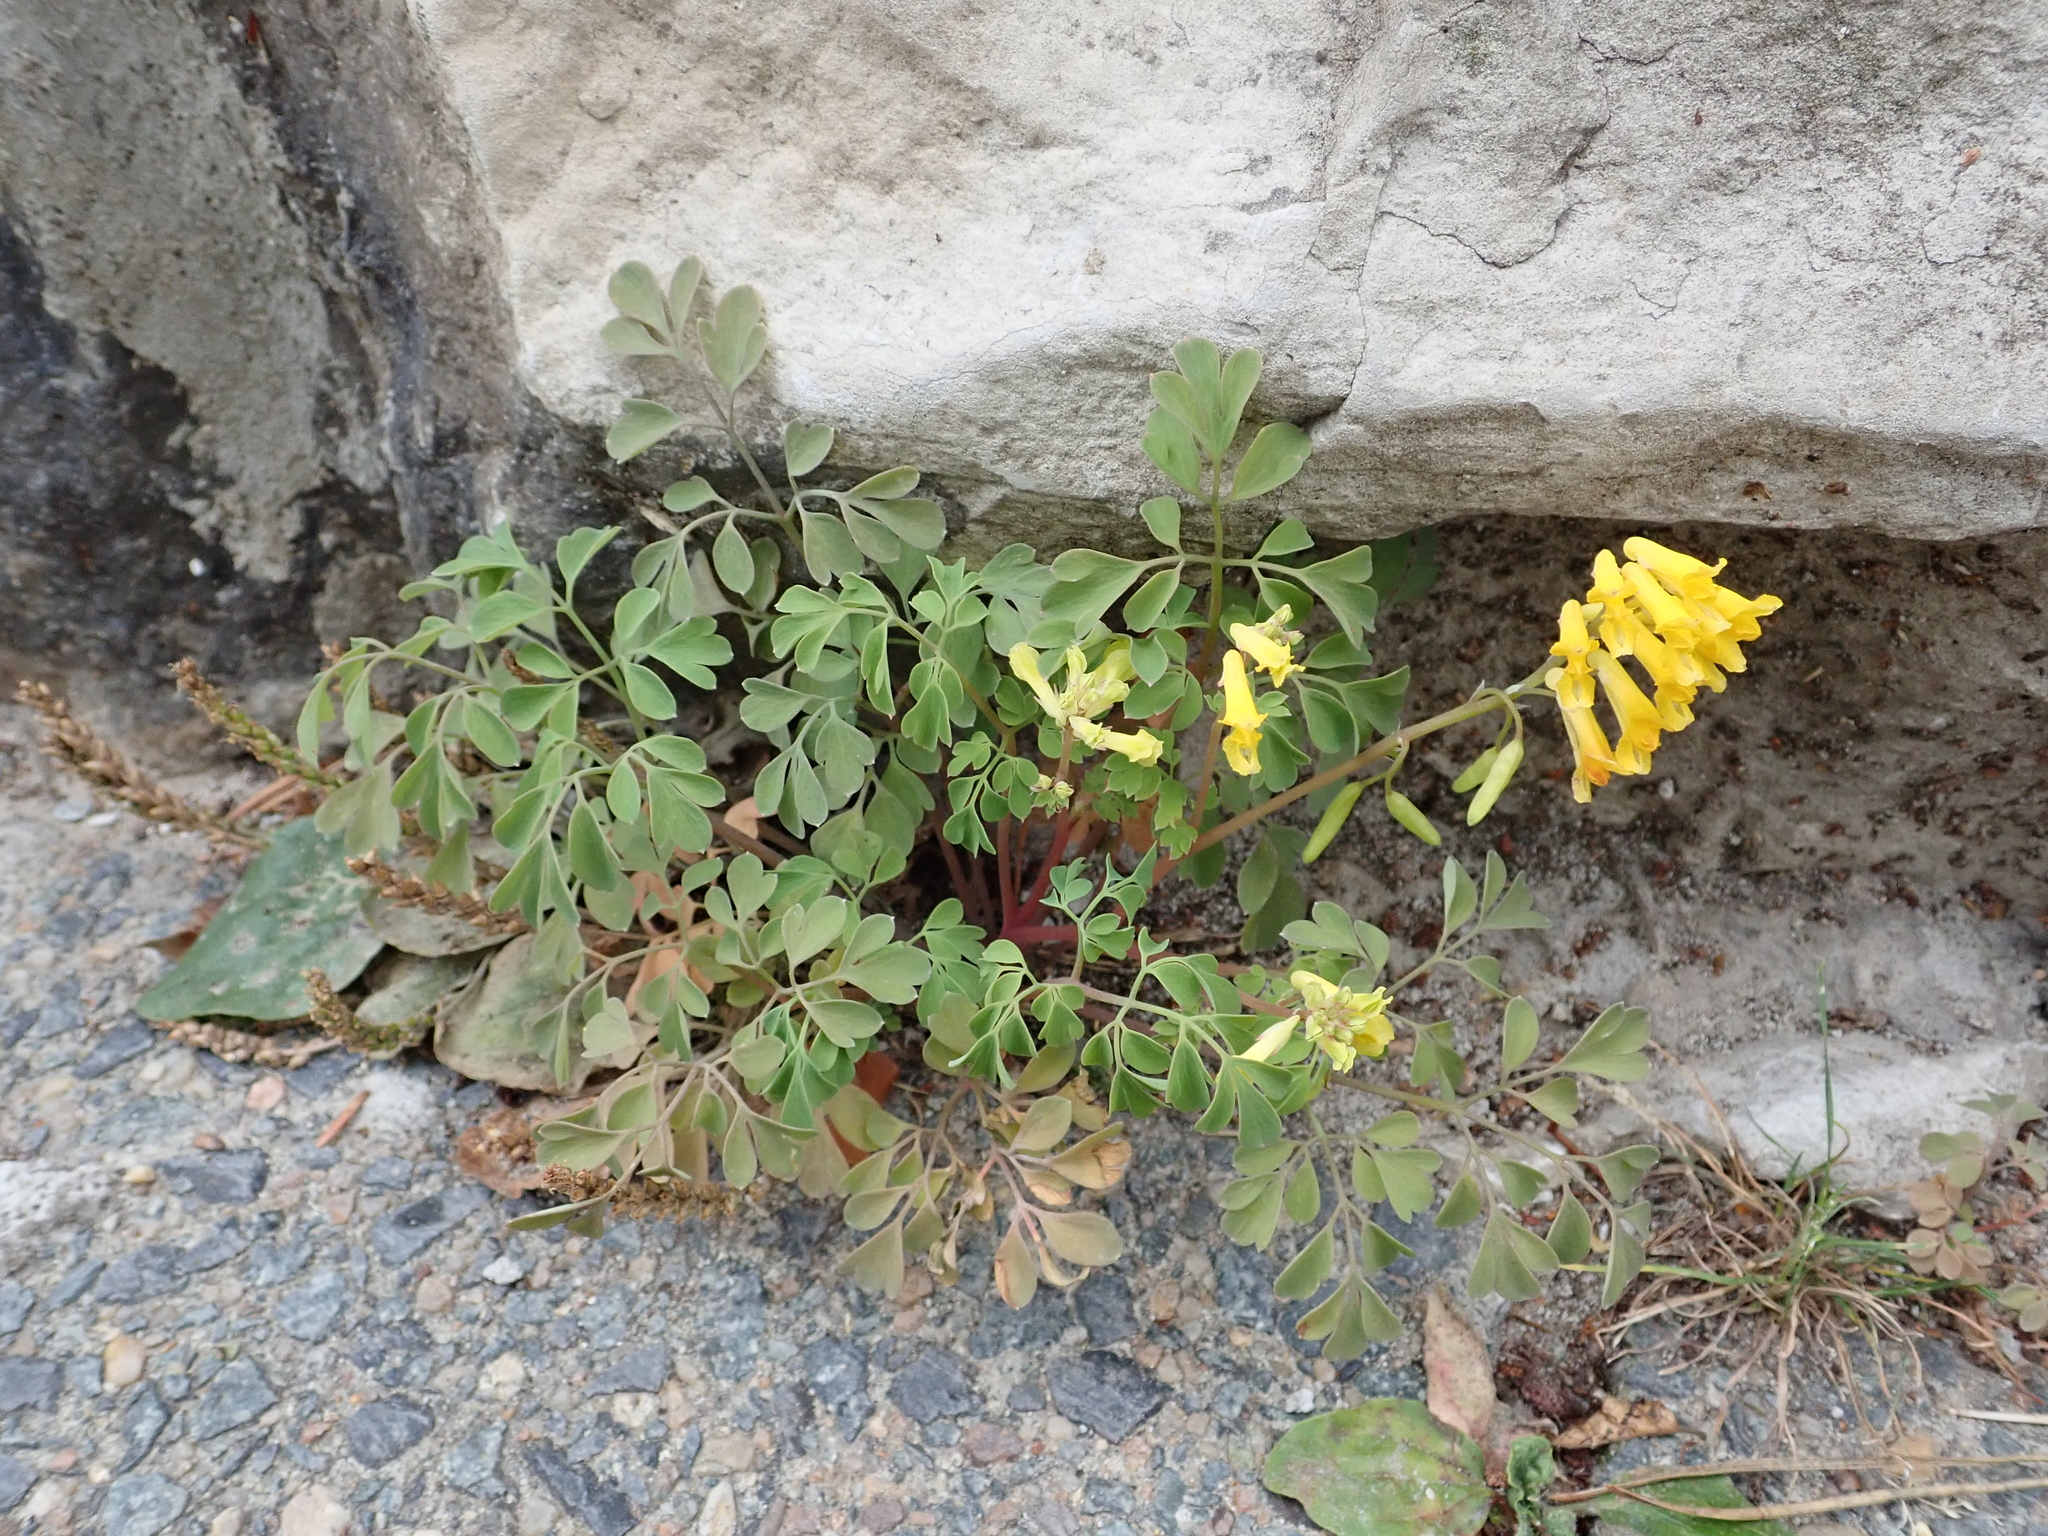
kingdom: Plantae
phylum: Tracheophyta
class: Magnoliopsida
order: Ranunculales
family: Papaveraceae
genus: Pseudofumaria
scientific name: Pseudofumaria lutea
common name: Yellow corydalis
